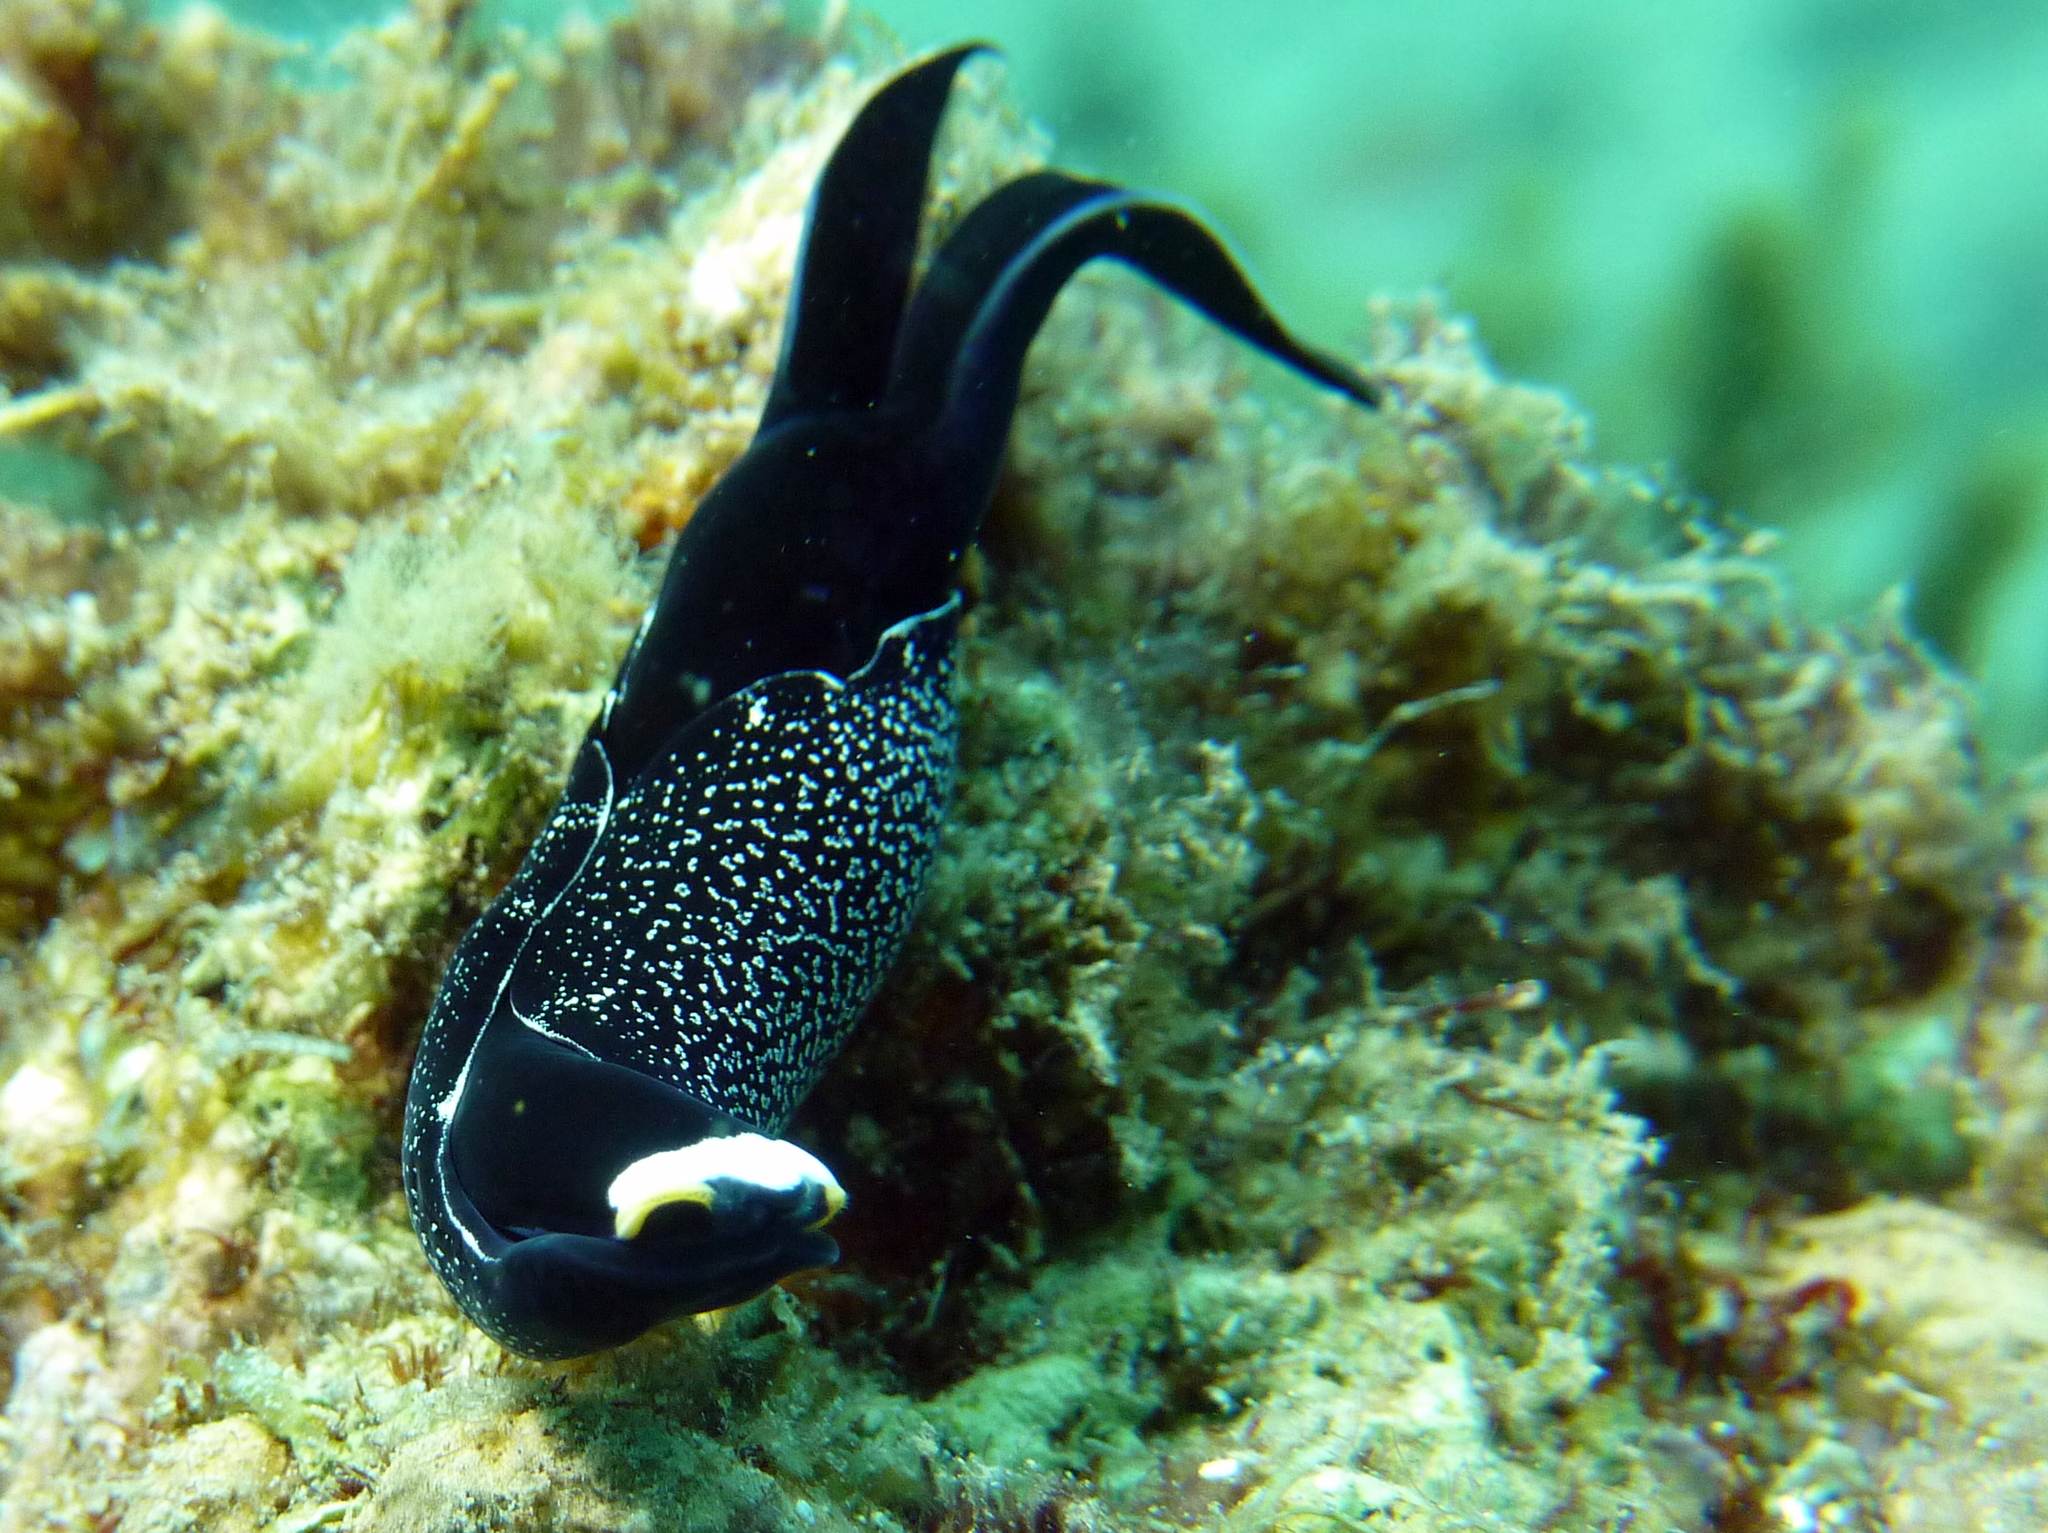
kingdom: Animalia
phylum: Mollusca
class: Gastropoda
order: Cephalaspidea
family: Aglajidae
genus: Mariaglaja
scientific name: Mariaglaja inornata
